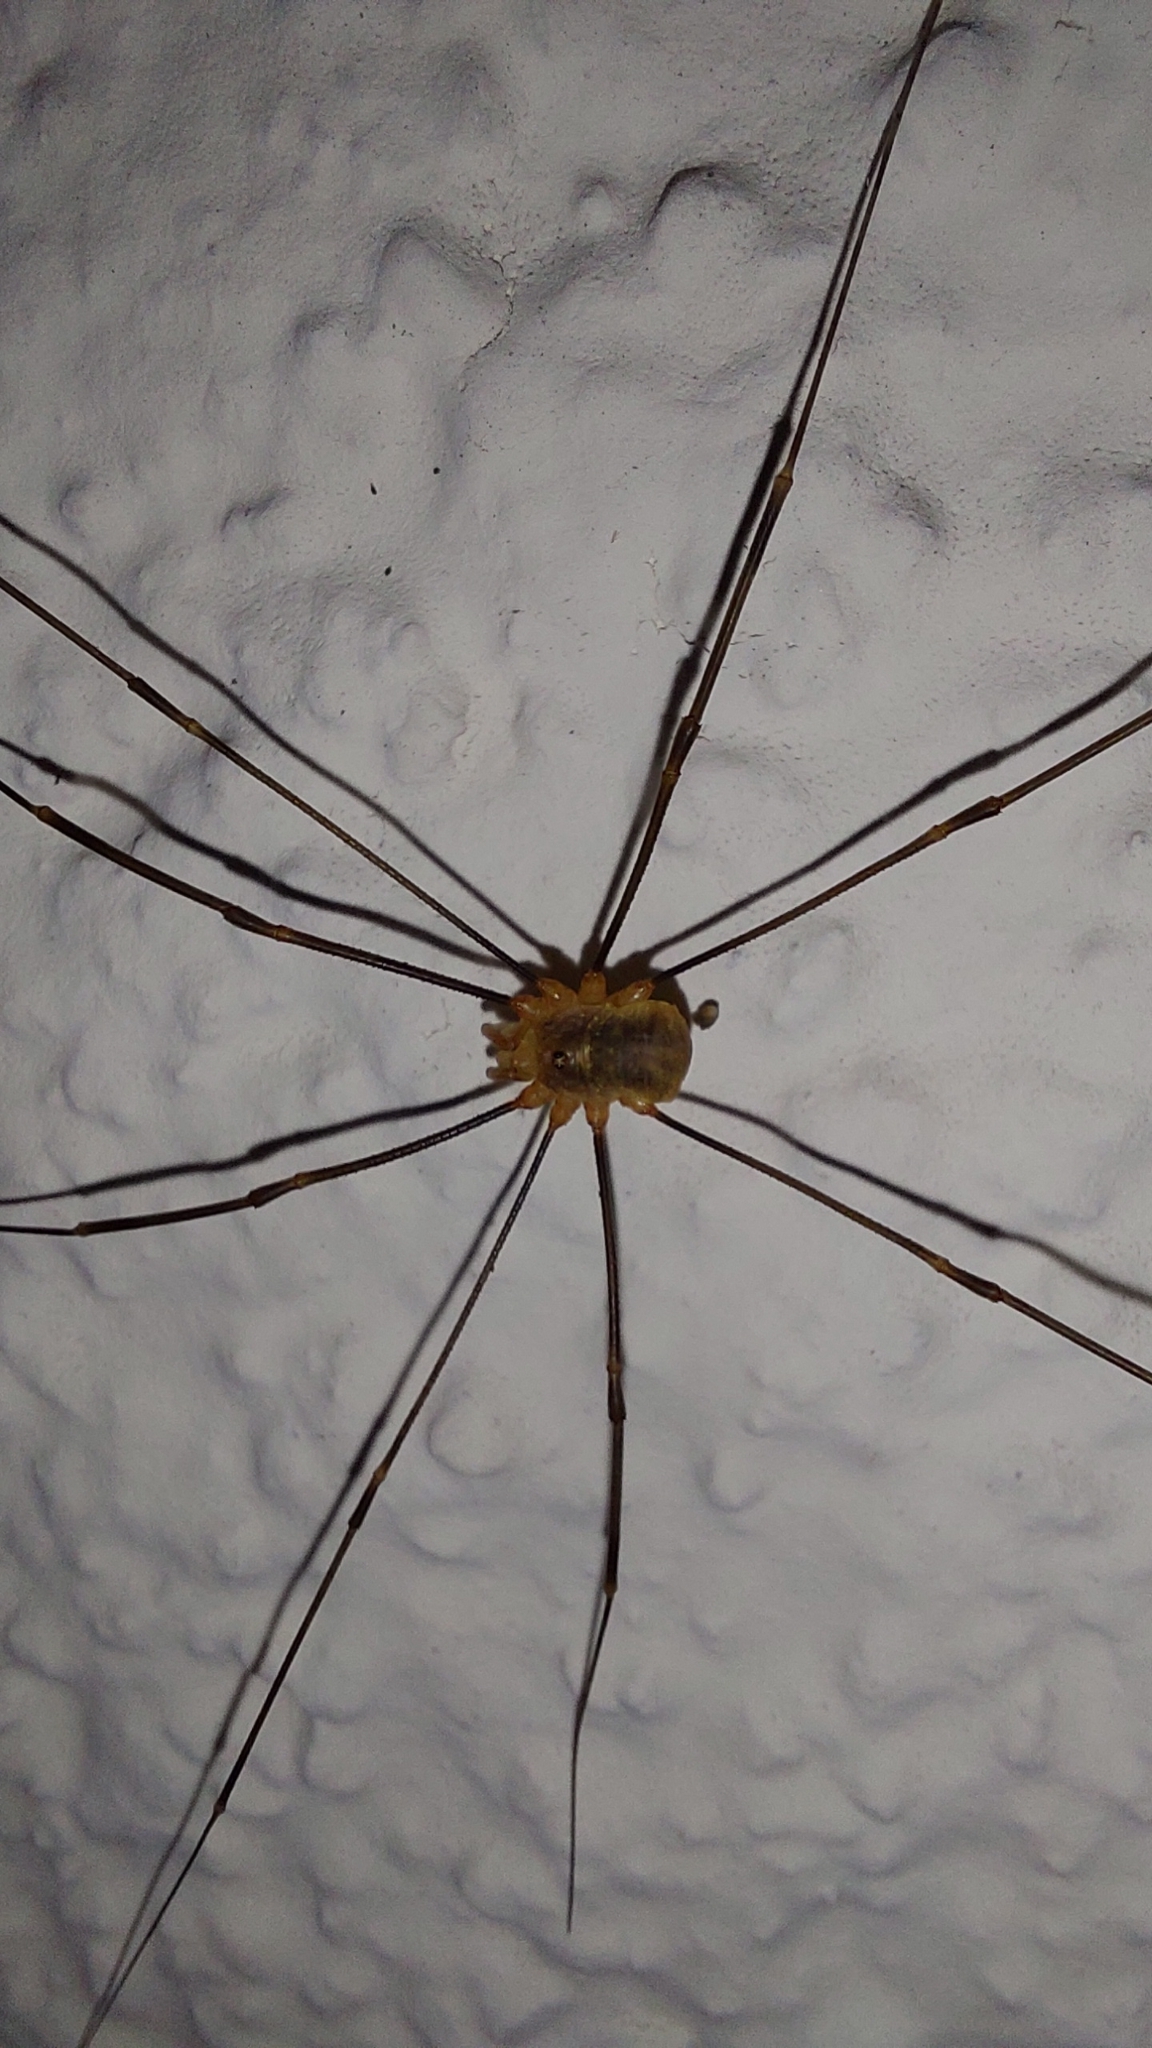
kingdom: Animalia
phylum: Arthropoda
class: Arachnida
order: Opiliones
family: Phalangiidae
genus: Opilio
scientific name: Opilio canestrinii
